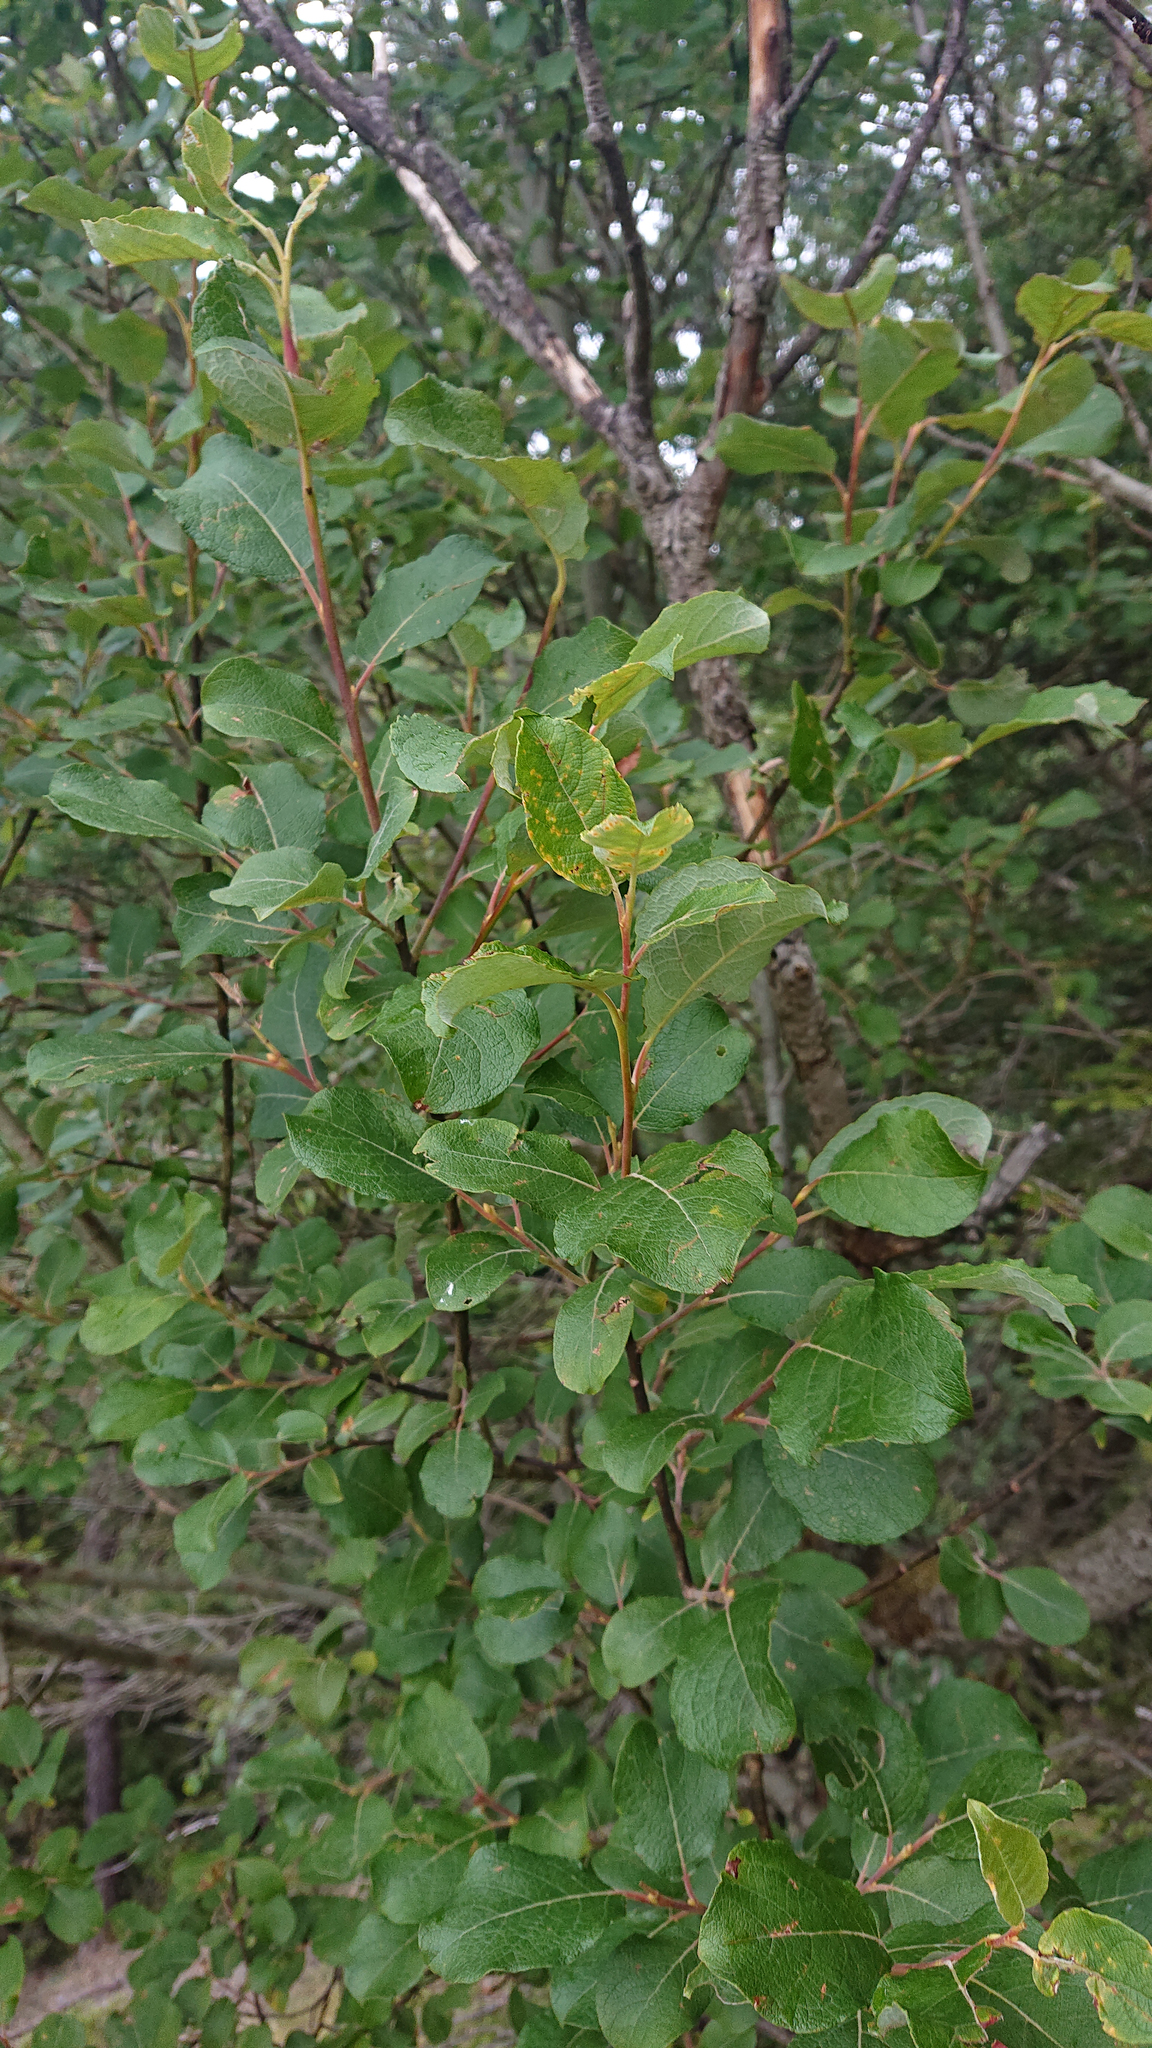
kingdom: Plantae
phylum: Tracheophyta
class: Magnoliopsida
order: Malpighiales
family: Salicaceae
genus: Salix
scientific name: Salix caprea
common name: Goat willow
